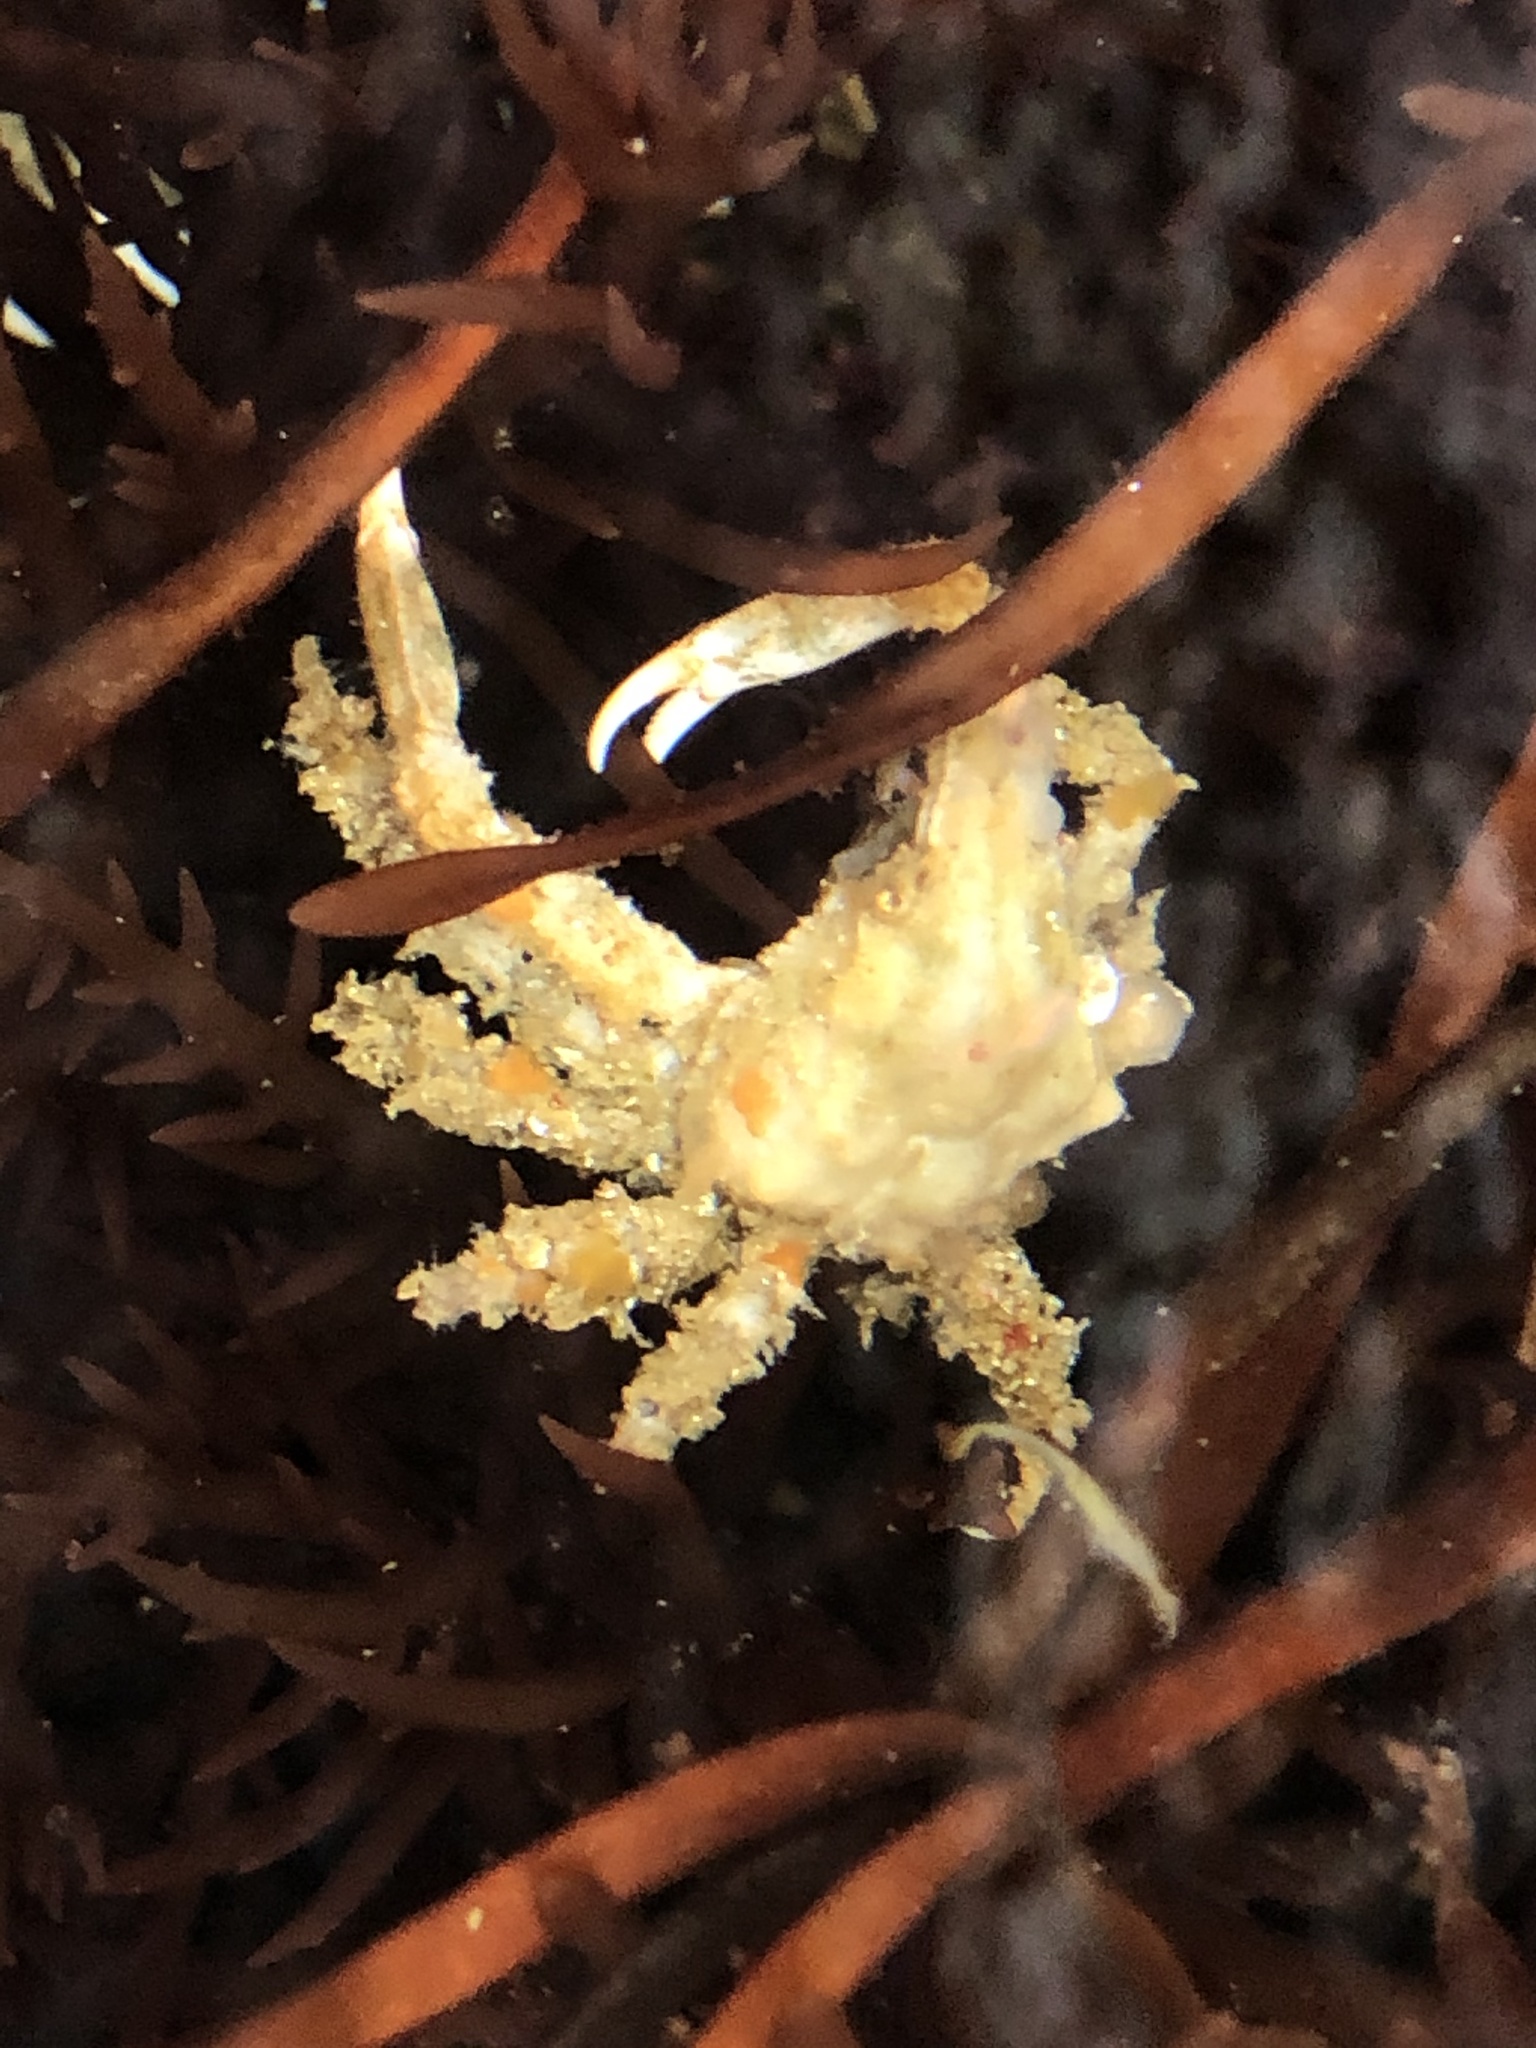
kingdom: Animalia
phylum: Arthropoda
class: Malacostraca
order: Decapoda
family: Epialtidae
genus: Scyra
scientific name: Scyra acutifrons
